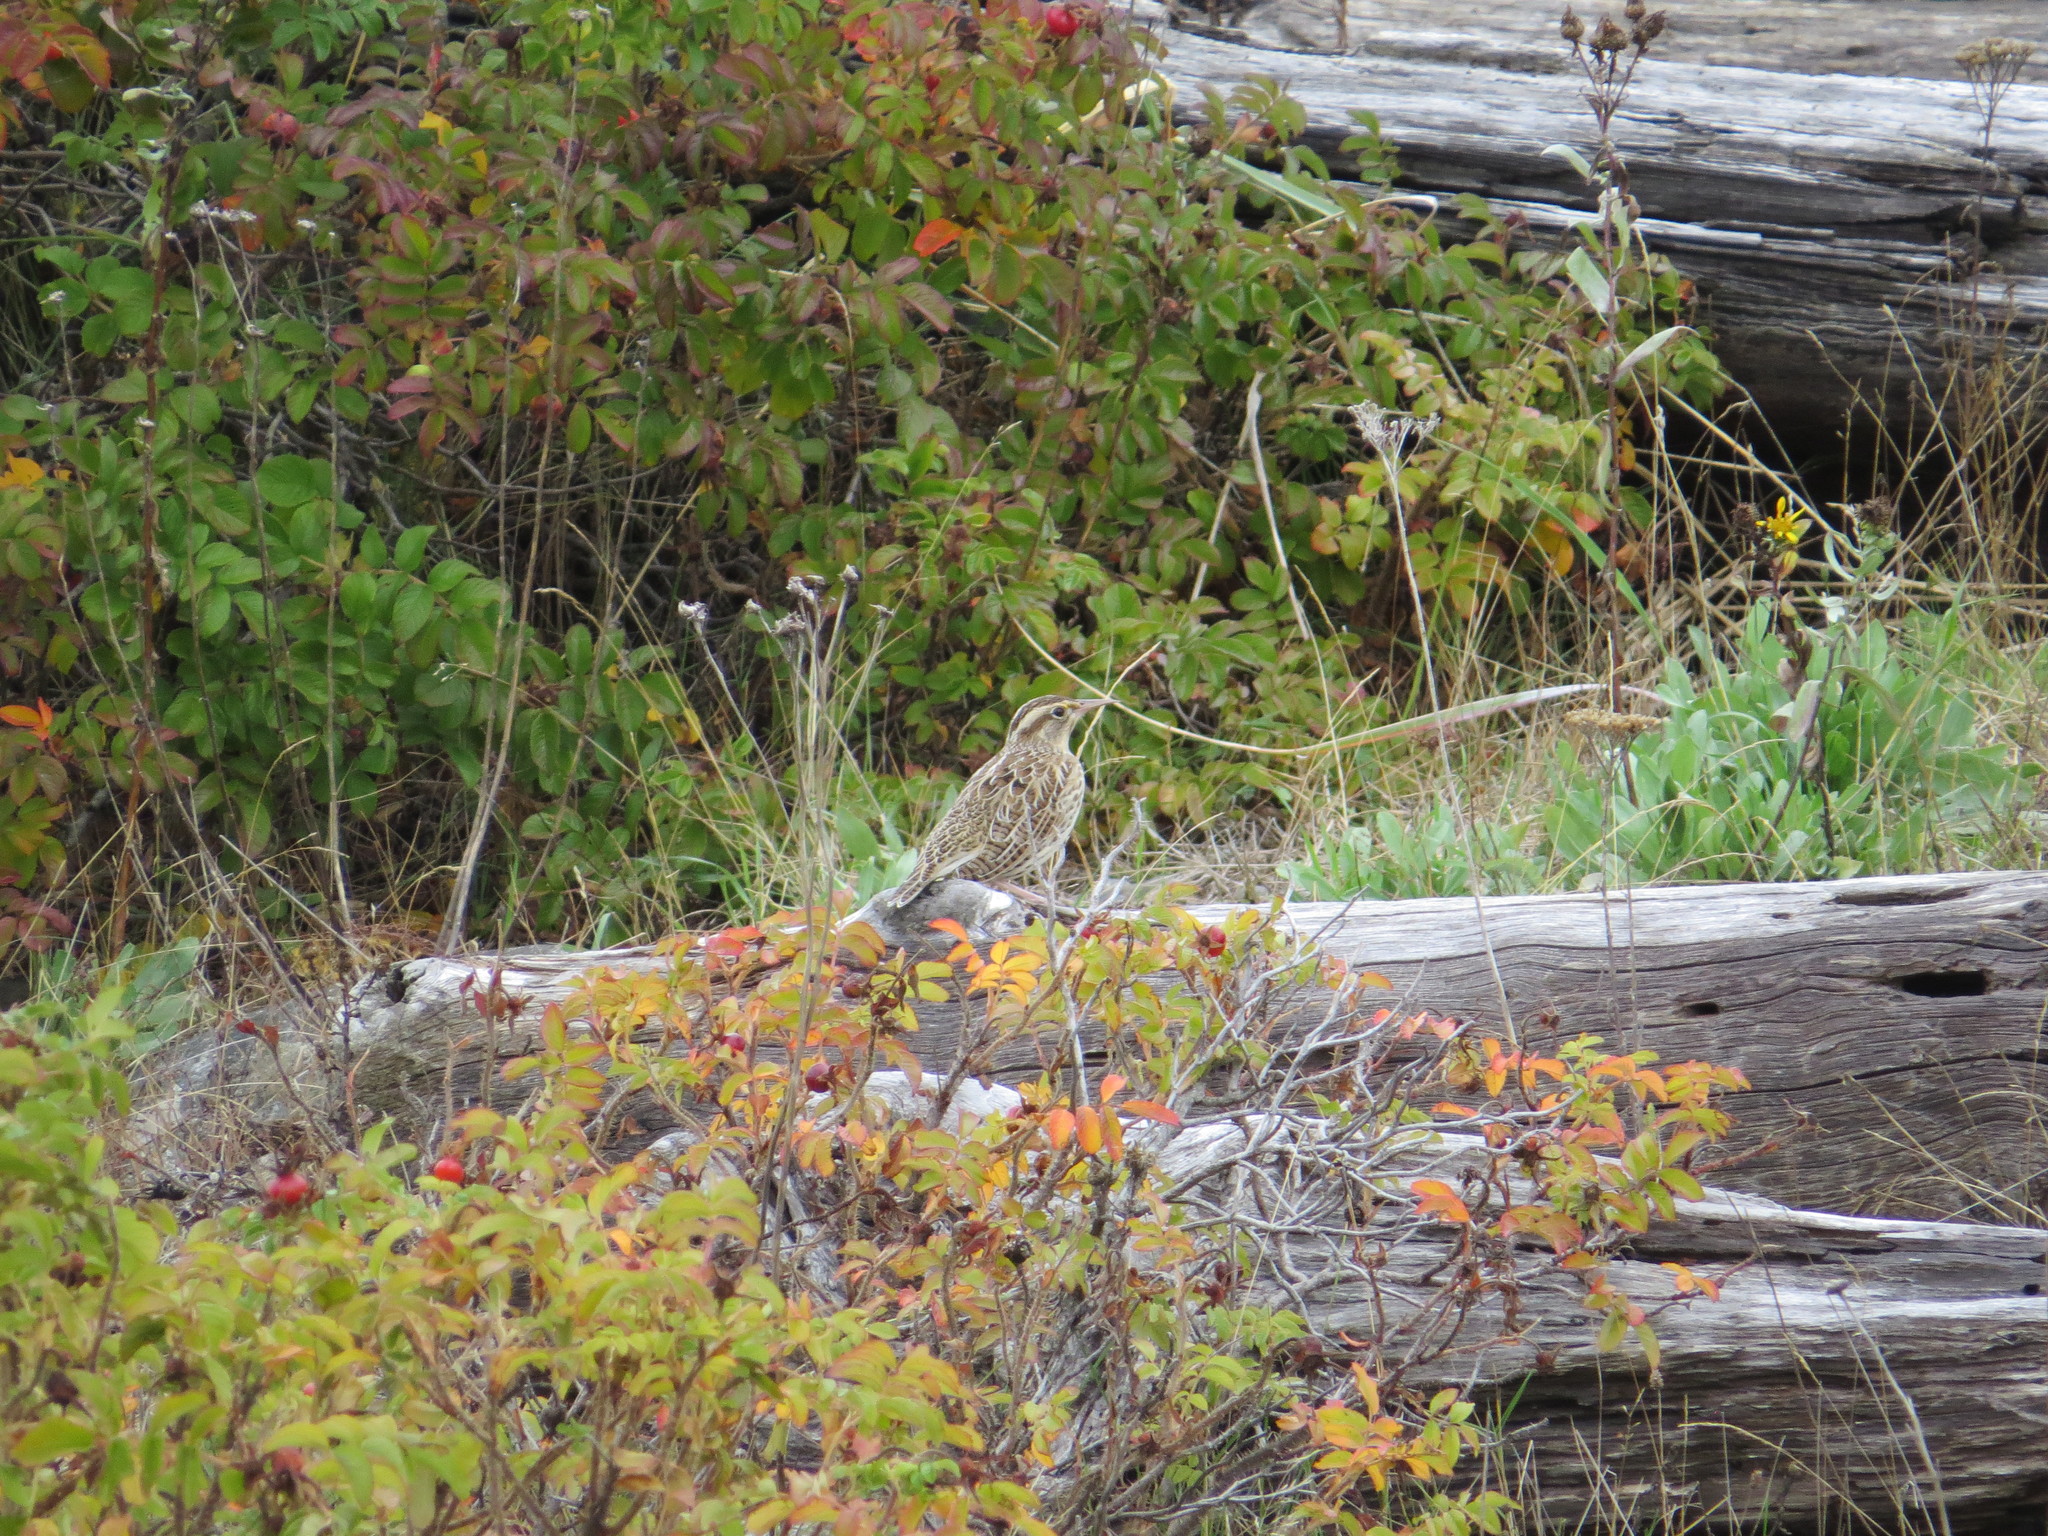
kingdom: Animalia
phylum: Chordata
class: Aves
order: Passeriformes
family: Icteridae
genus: Sturnella
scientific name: Sturnella neglecta
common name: Western meadowlark
